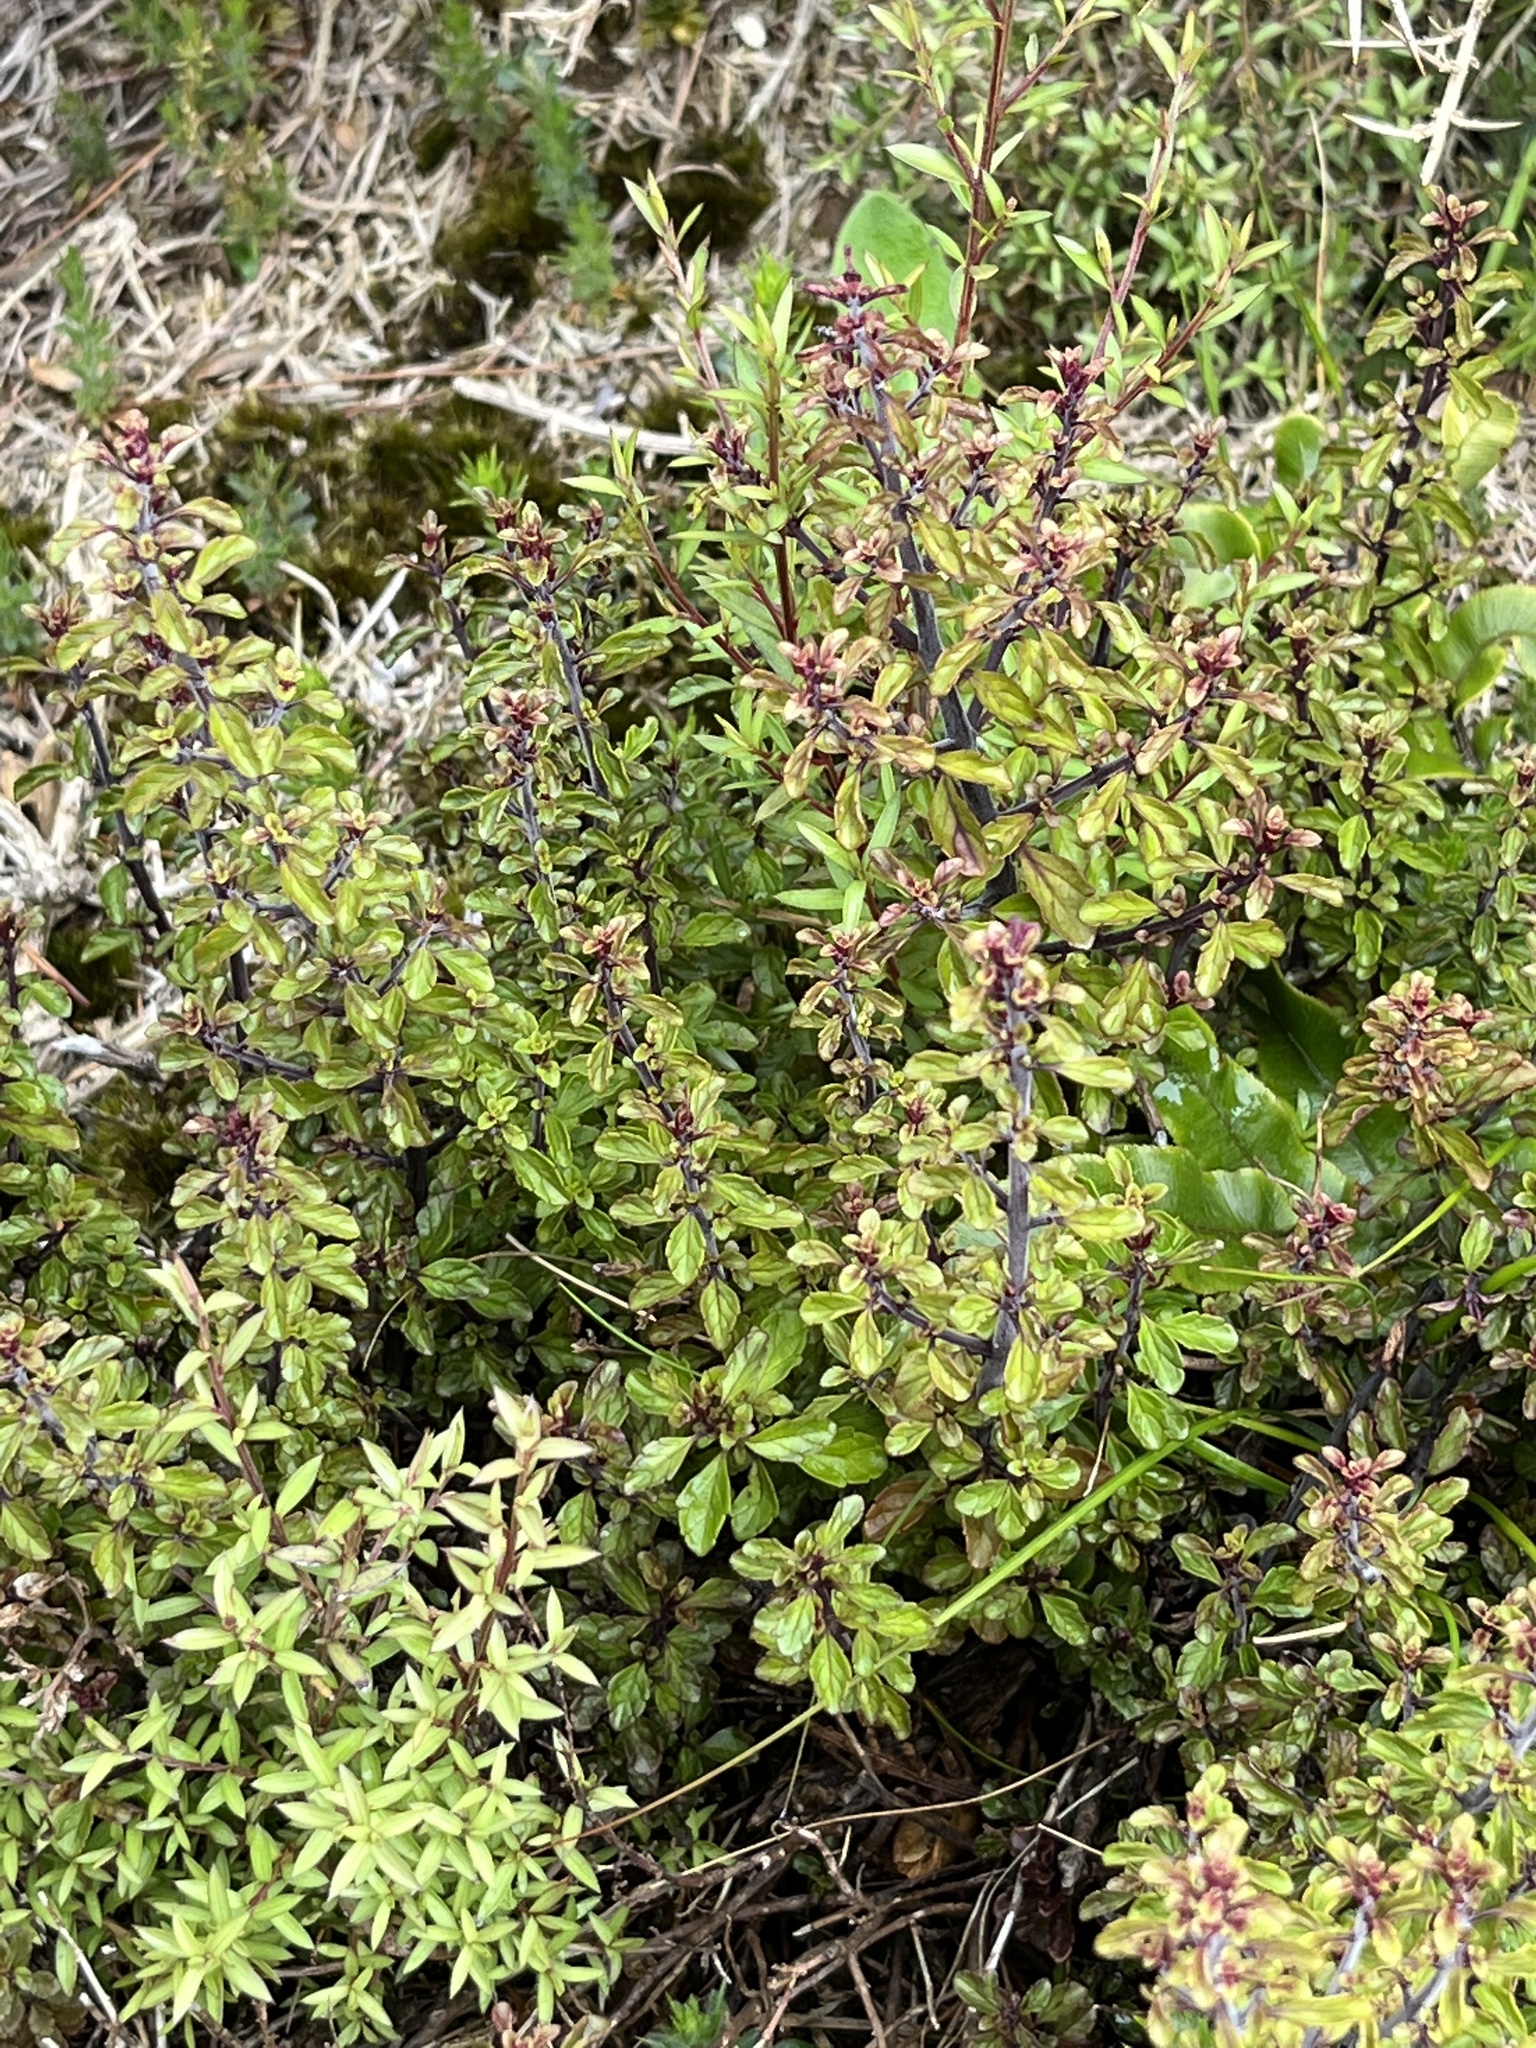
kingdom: Plantae
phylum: Tracheophyta
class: Magnoliopsida
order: Lamiales
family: Orobanchaceae
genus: Euphrasia
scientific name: Euphrasia cuneata
